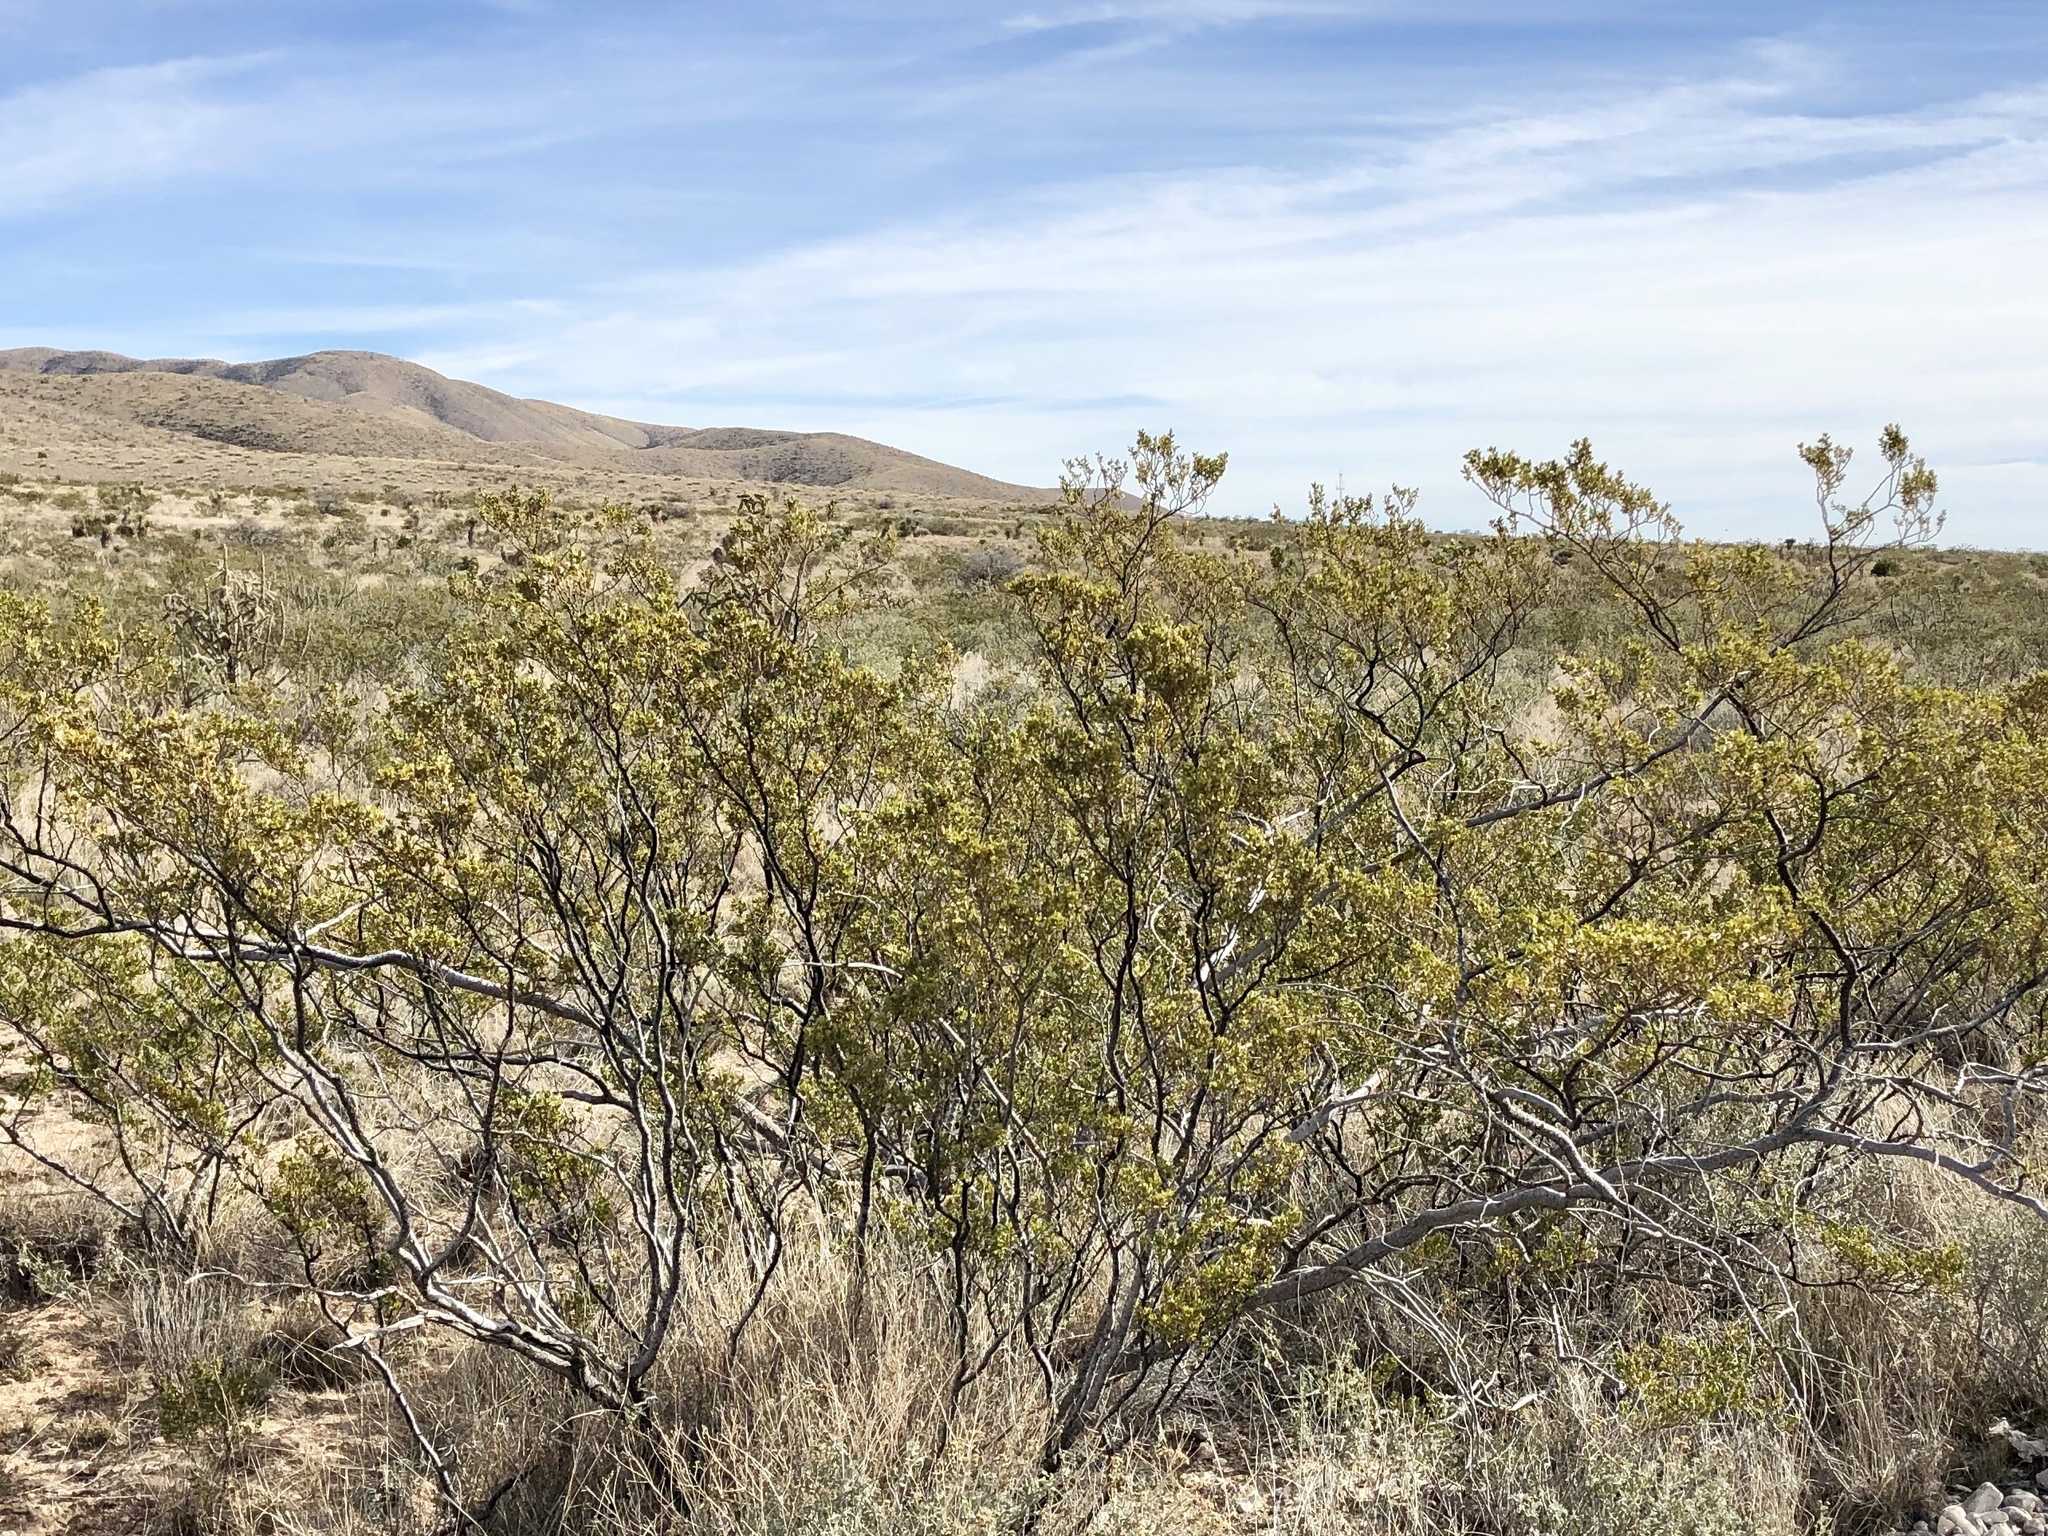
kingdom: Plantae
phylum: Tracheophyta
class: Magnoliopsida
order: Zygophyllales
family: Zygophyllaceae
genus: Larrea
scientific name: Larrea tridentata
